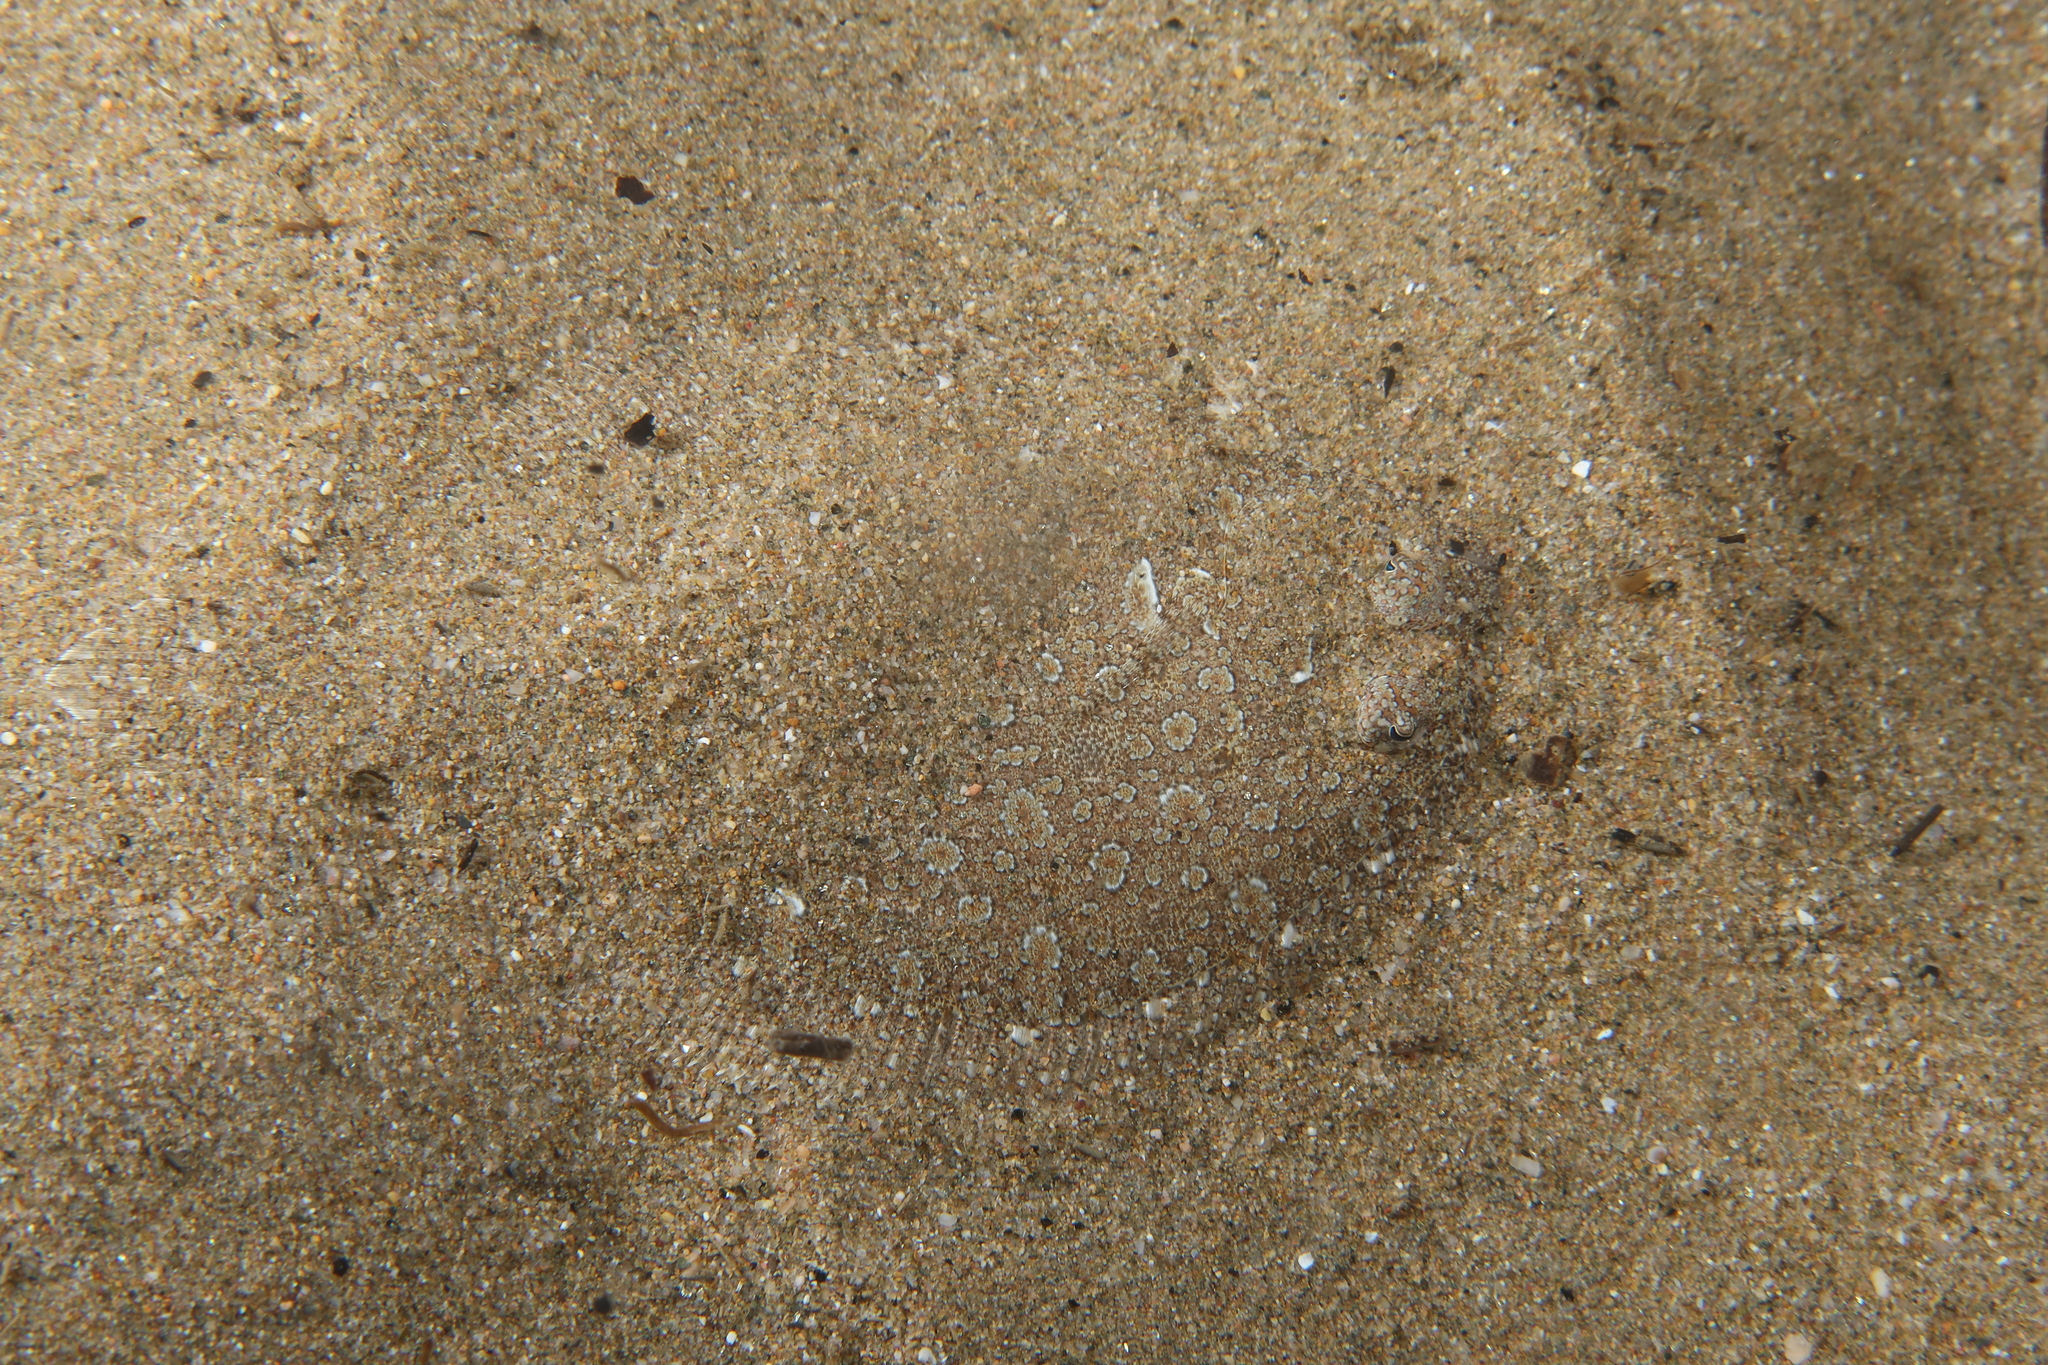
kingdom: Animalia
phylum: Chordata
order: Pleuronectiformes
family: Bothidae
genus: Bothus
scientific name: Bothus podas
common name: Wide-eyed flounder
